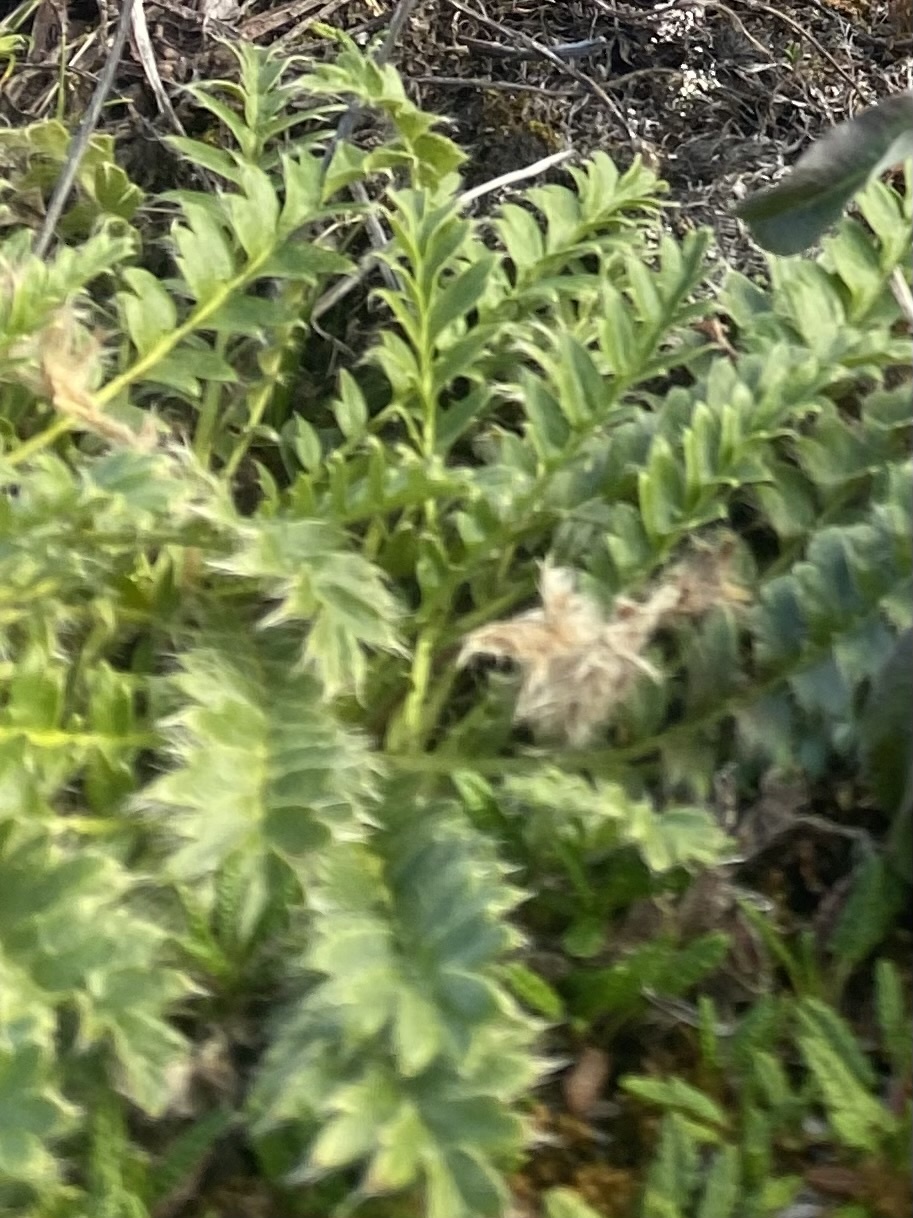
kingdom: Plantae
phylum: Tracheophyta
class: Magnoliopsida
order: Rosales
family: Rosaceae
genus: Geum
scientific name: Geum glaciale
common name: Glacier avens
